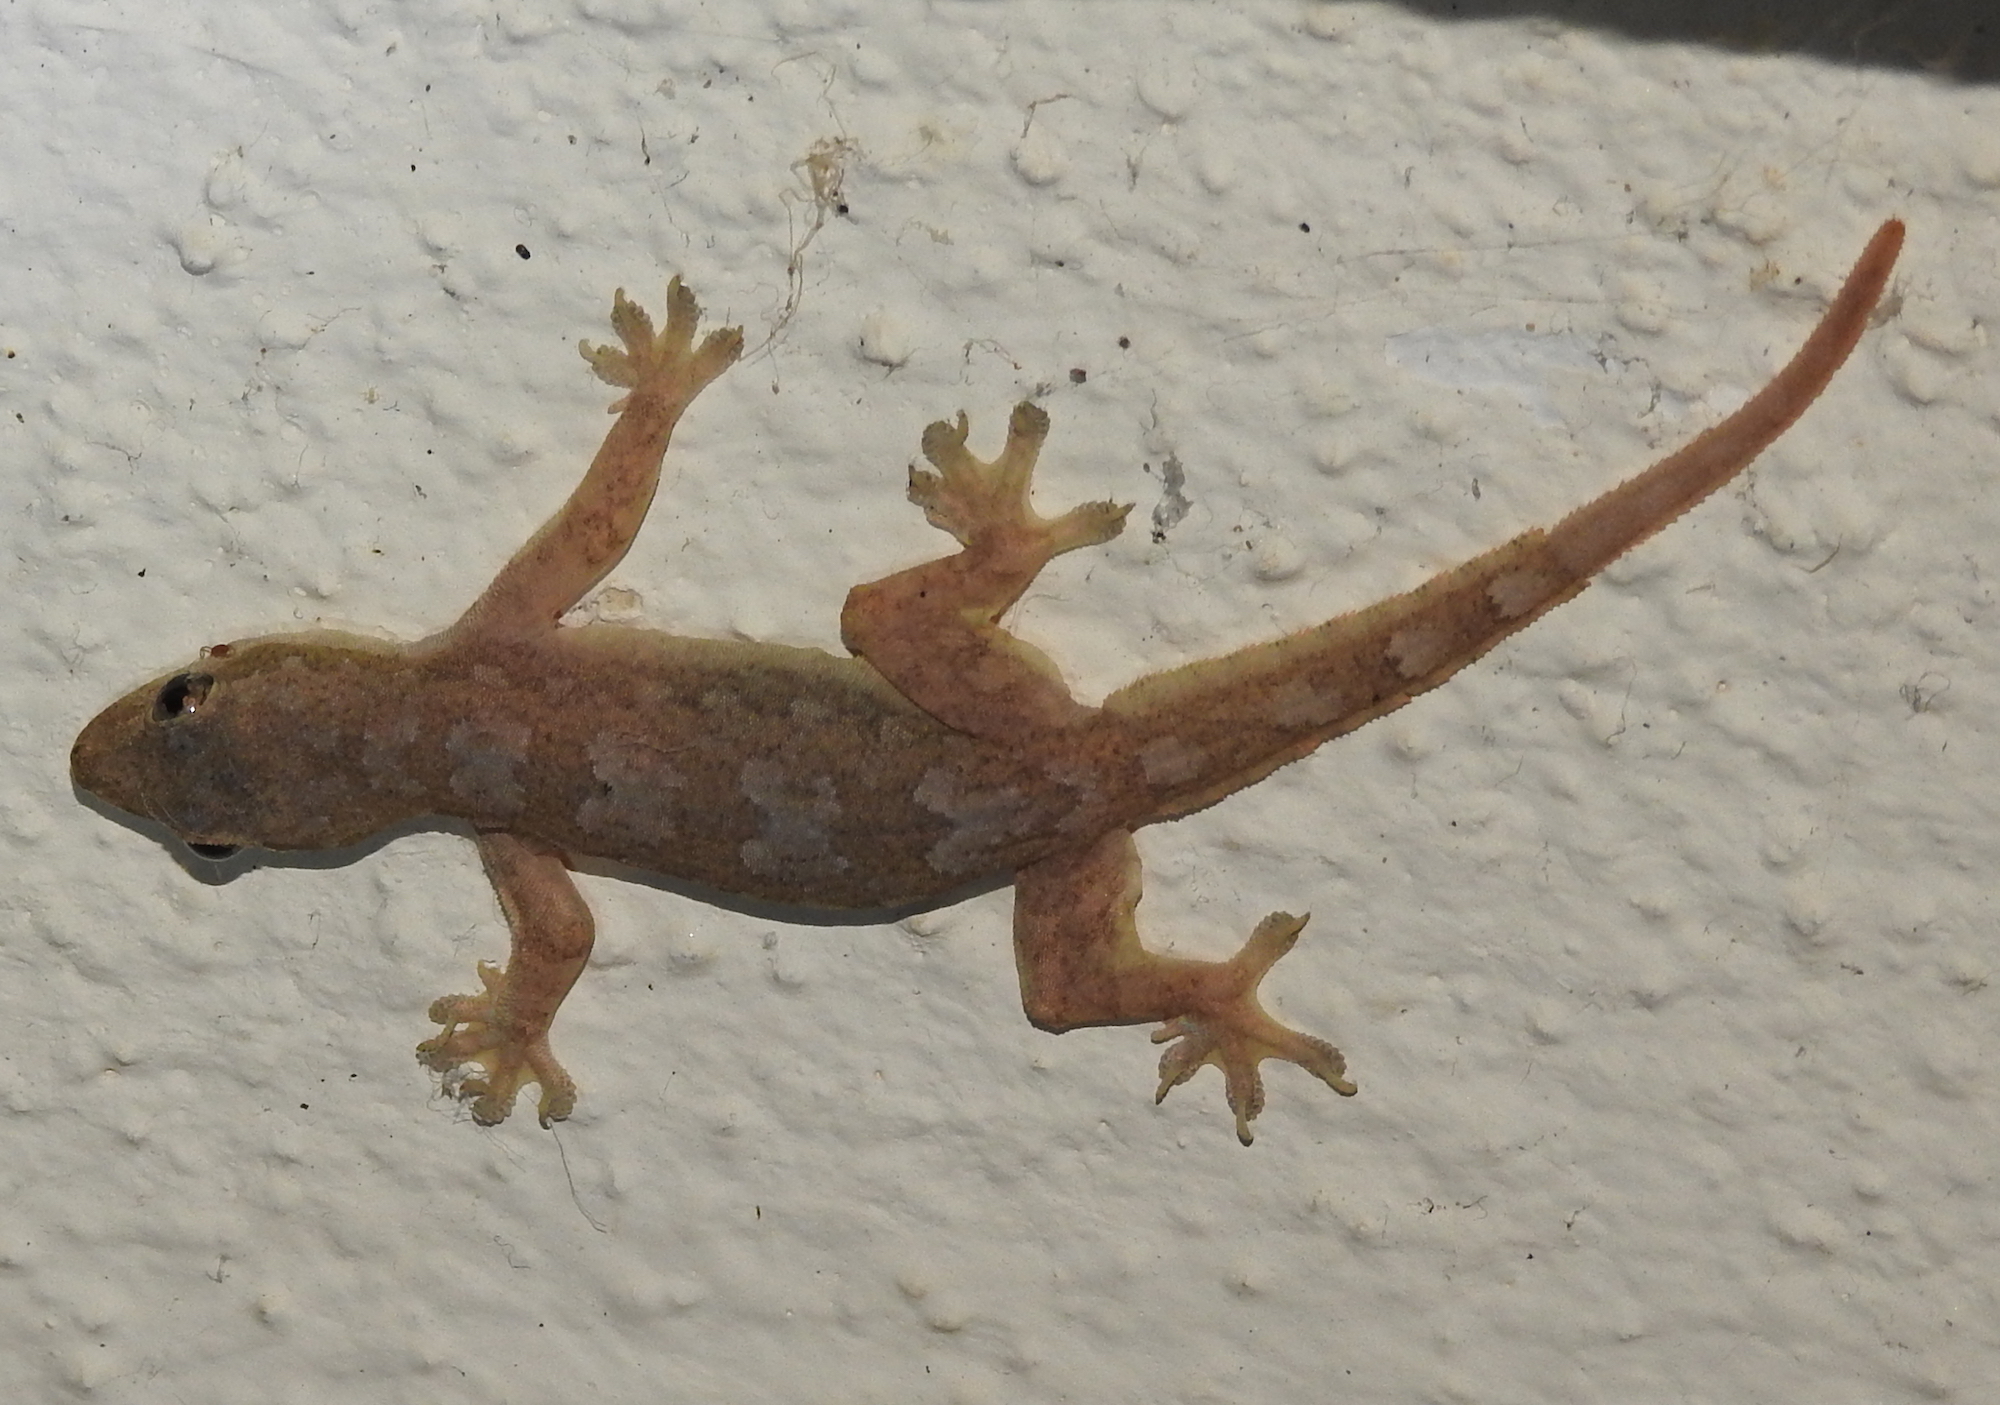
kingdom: Animalia
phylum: Chordata
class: Squamata
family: Gekkonidae
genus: Hemidactylus
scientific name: Hemidactylus platyurus
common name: Flat-tailed house gecko
